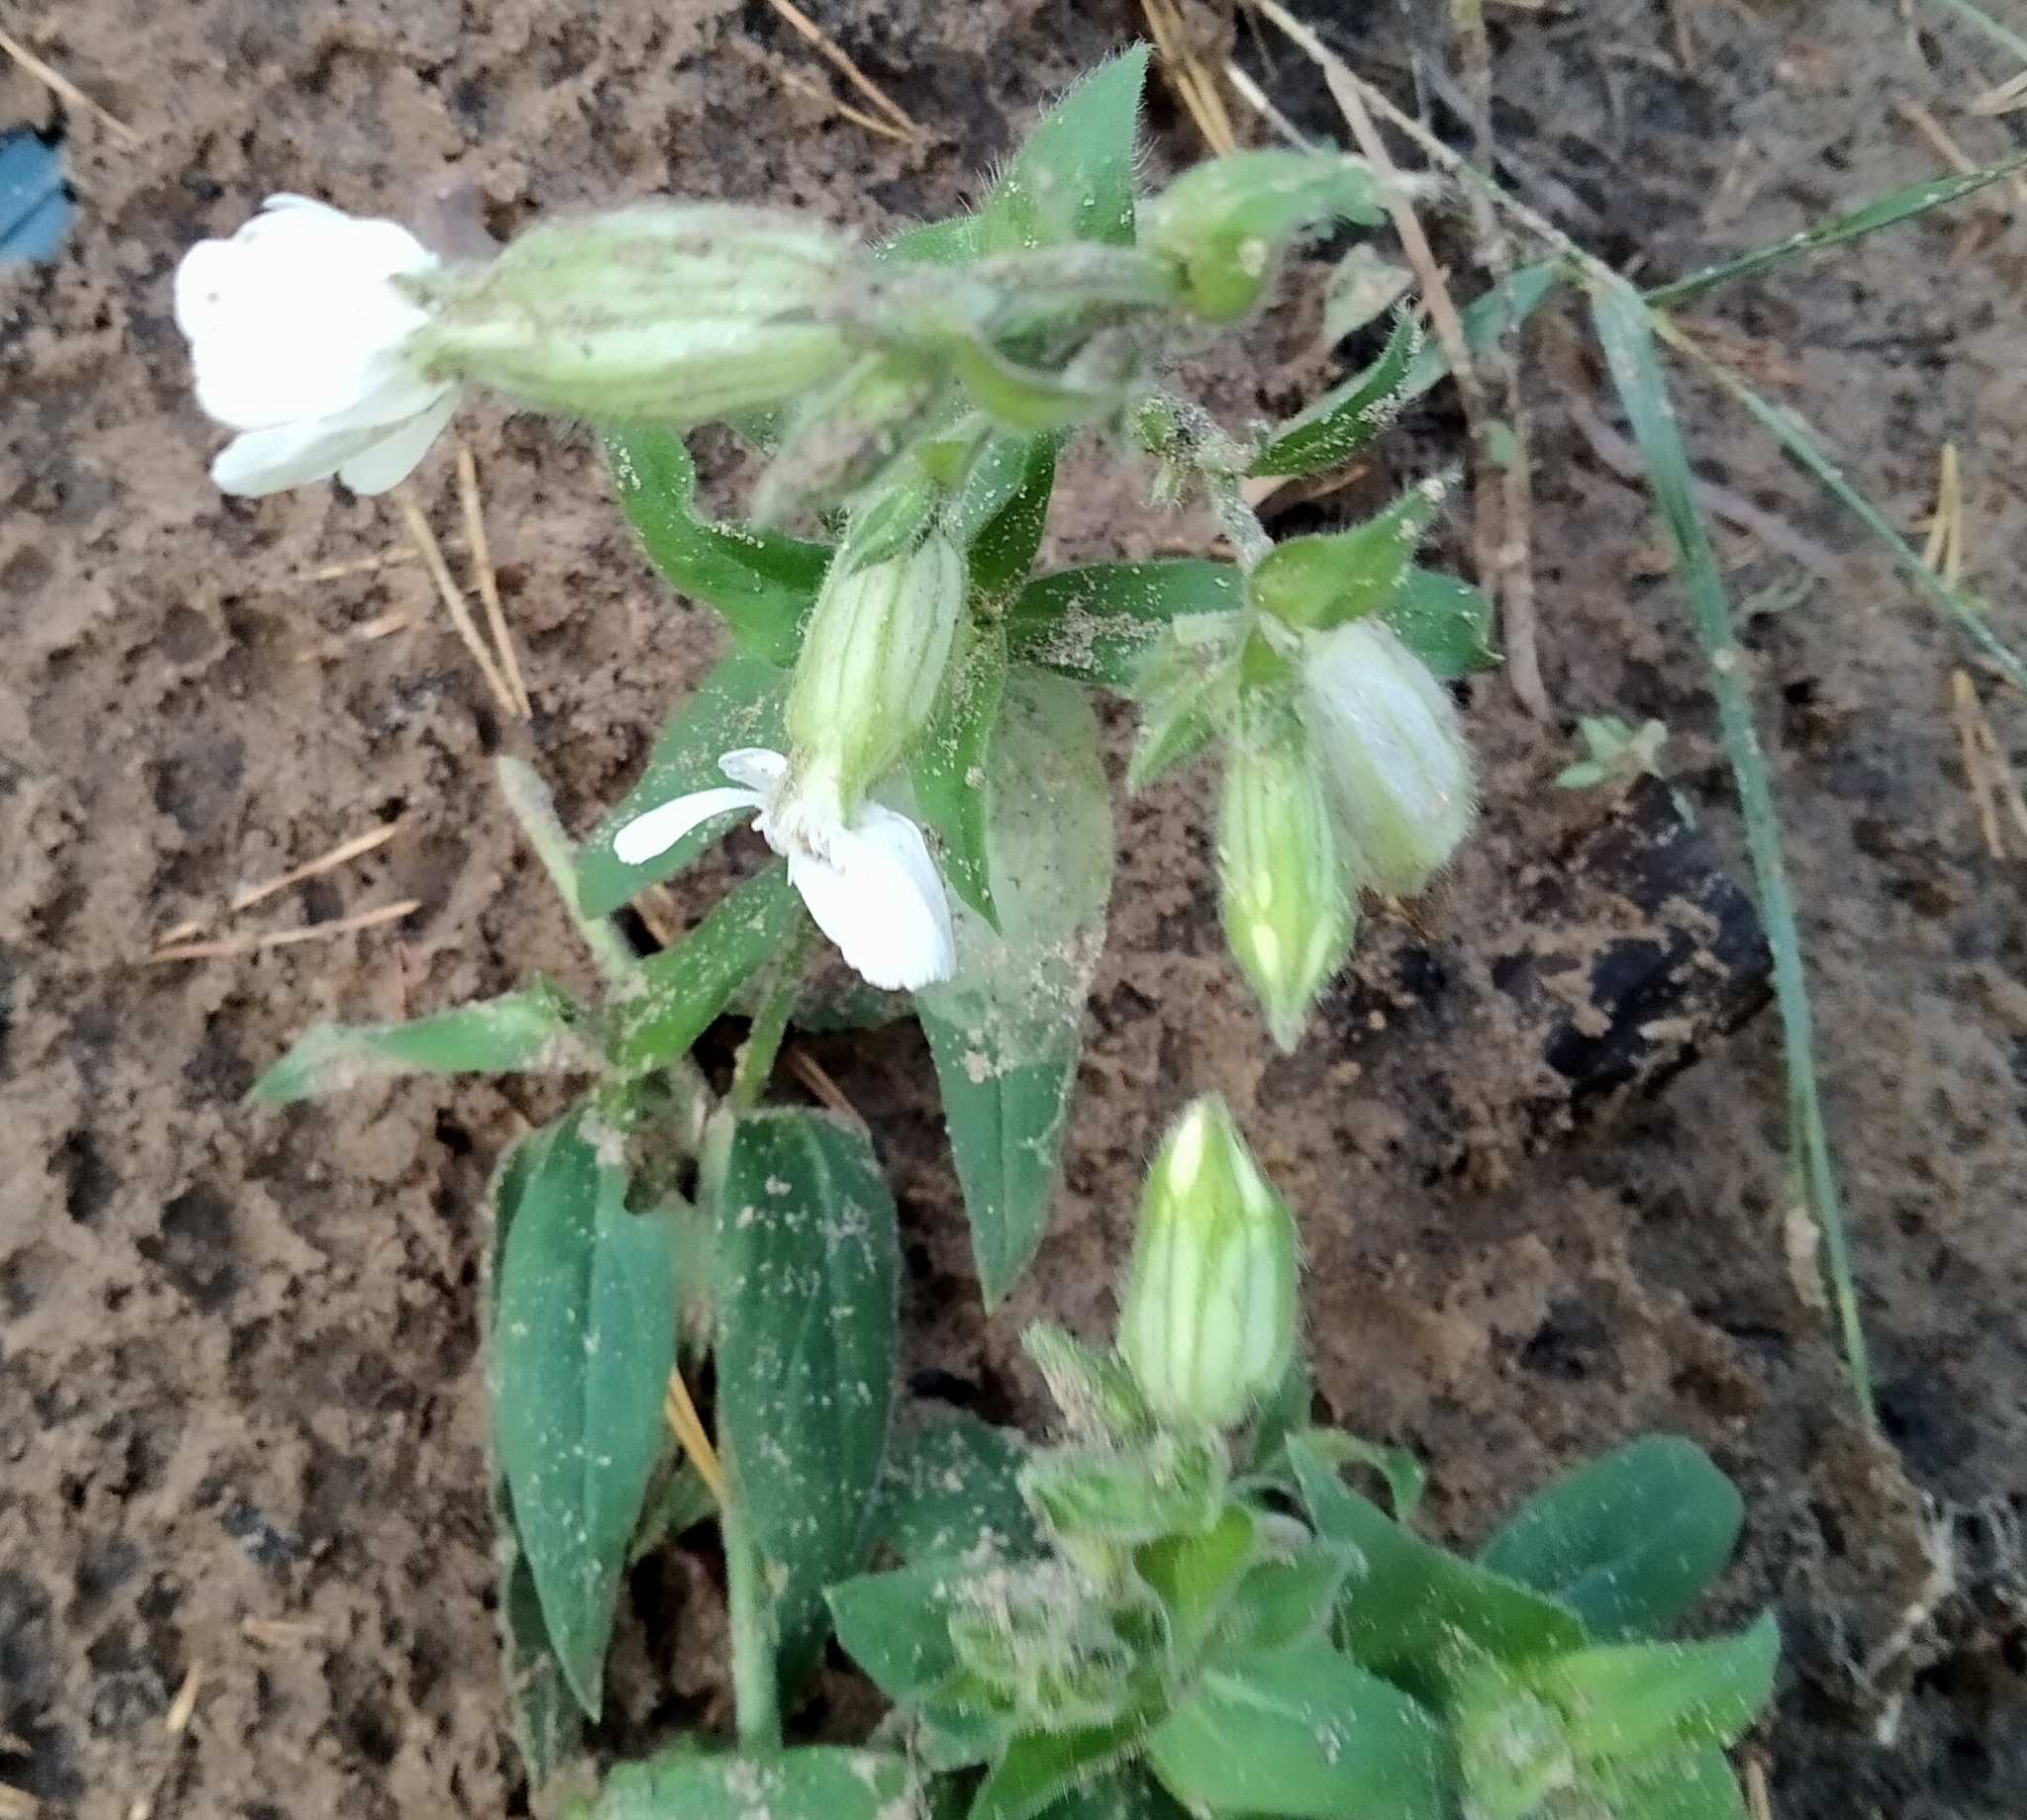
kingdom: Plantae
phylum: Tracheophyta
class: Magnoliopsida
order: Caryophyllales
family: Caryophyllaceae
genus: Silene
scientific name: Silene latifolia
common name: White campion
